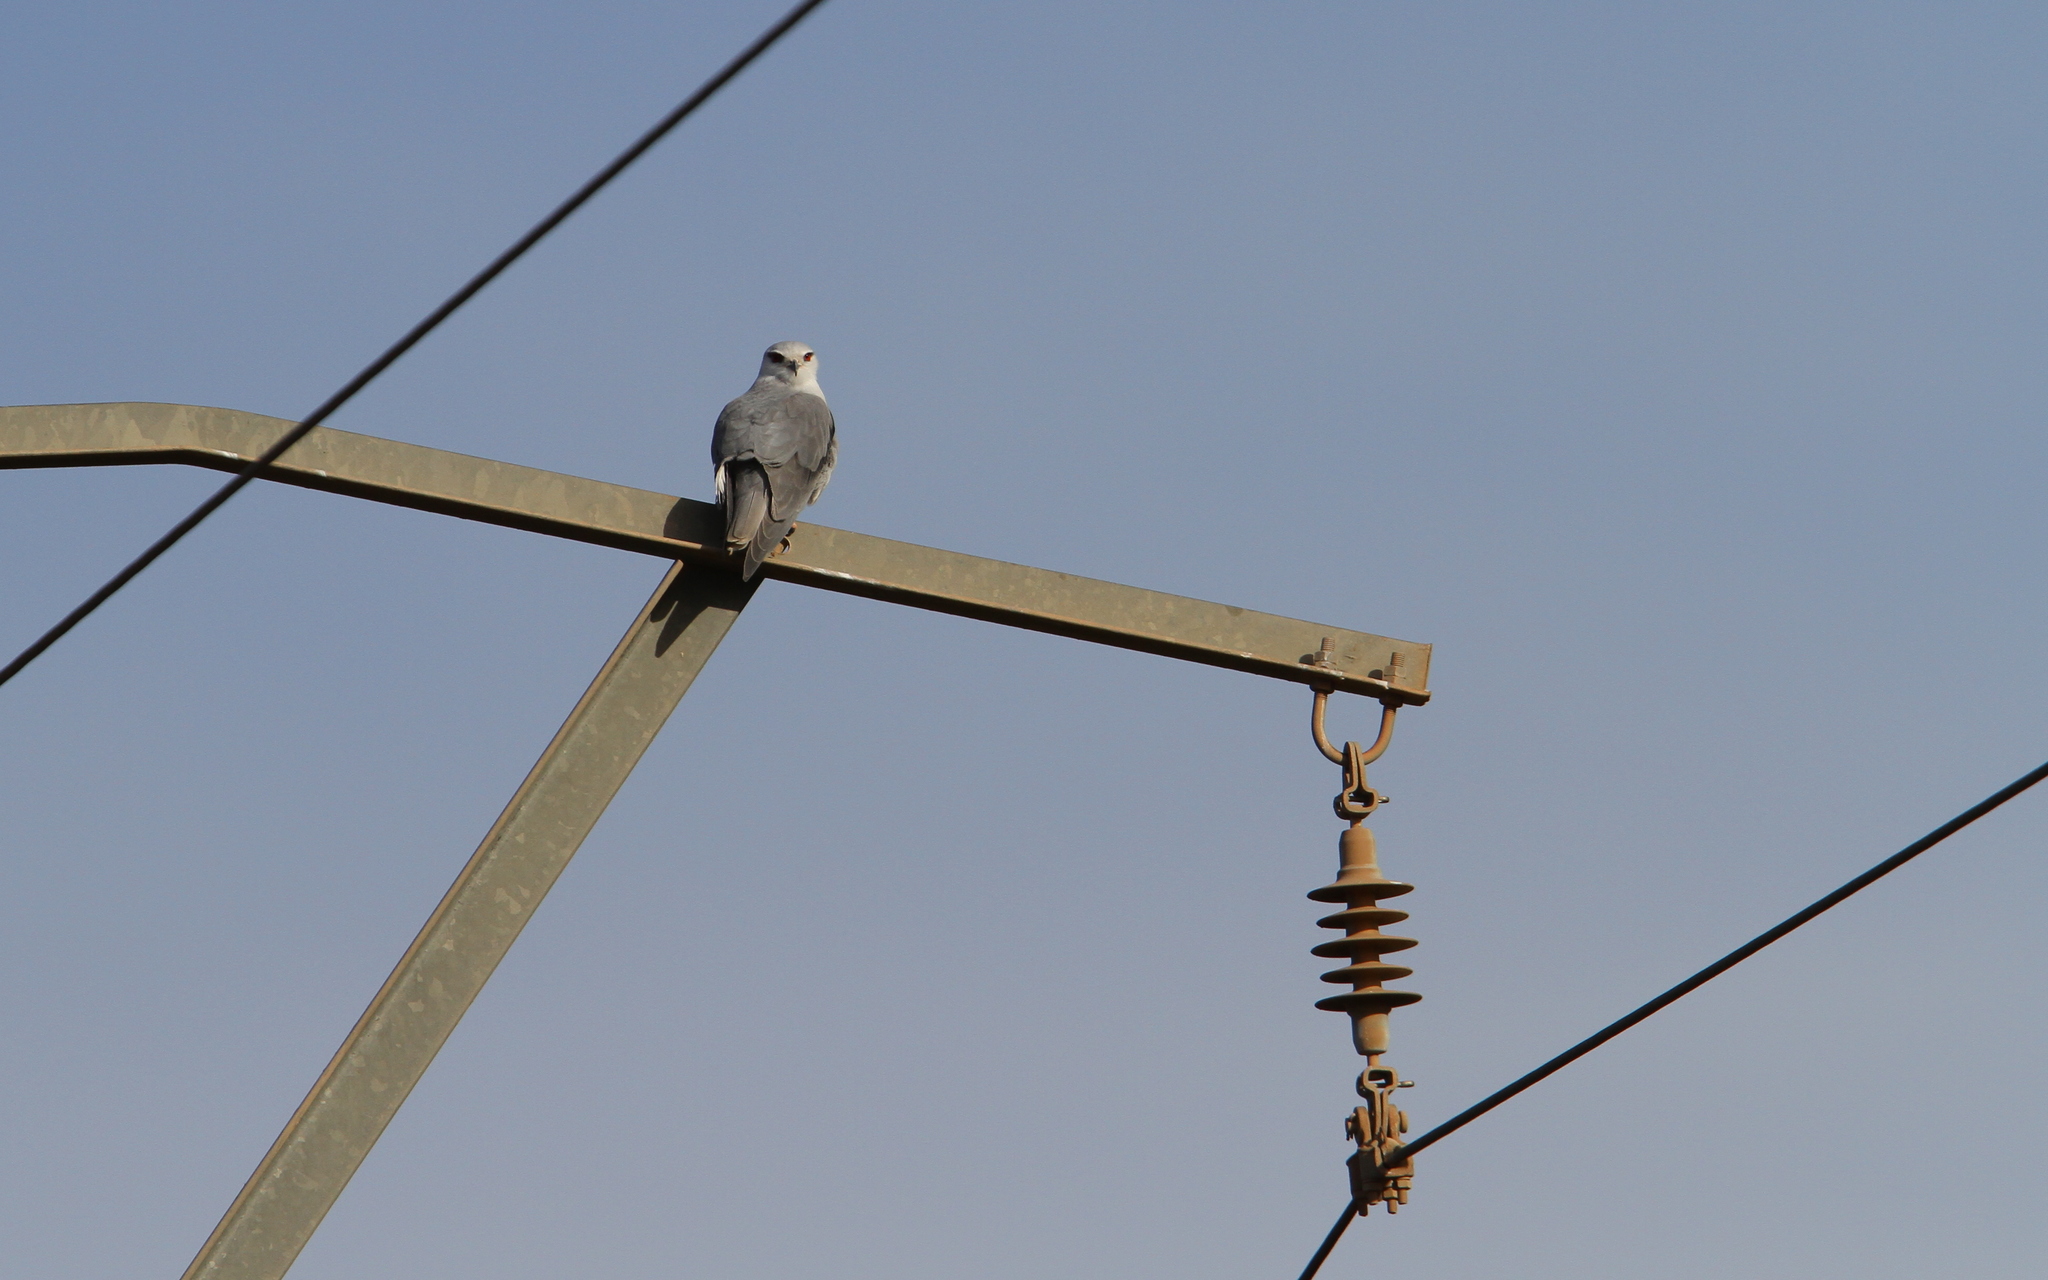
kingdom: Animalia
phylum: Chordata
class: Aves
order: Accipitriformes
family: Accipitridae
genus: Elanus
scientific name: Elanus caeruleus
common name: Black-winged kite
